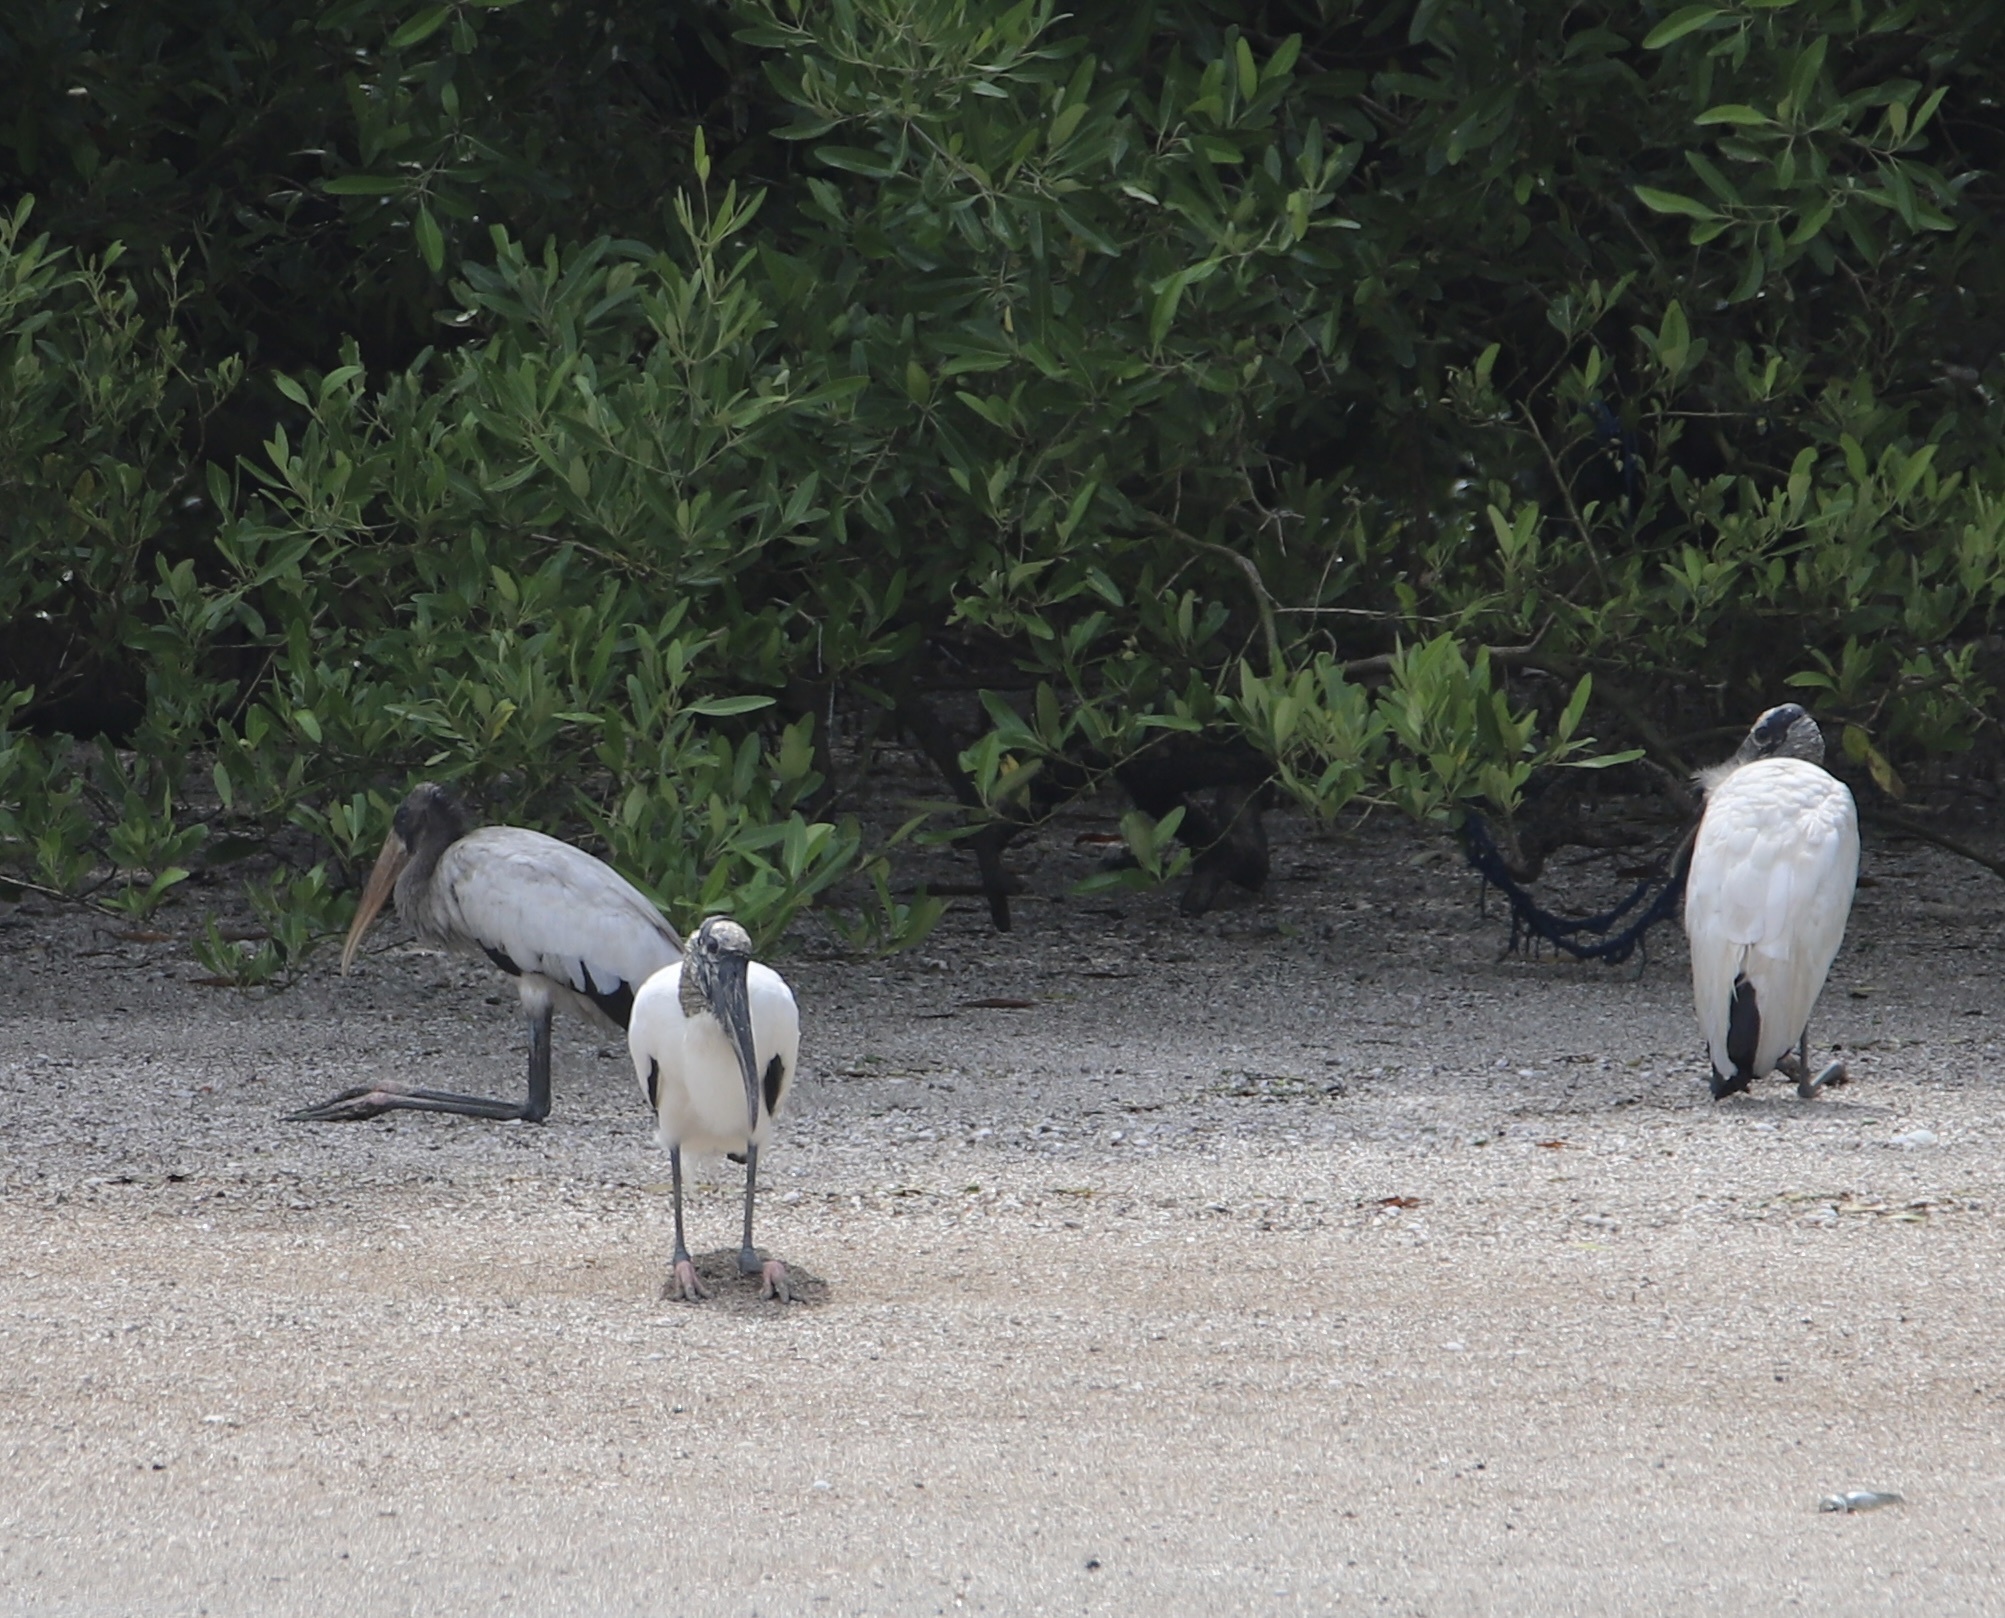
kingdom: Animalia
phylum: Chordata
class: Aves
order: Ciconiiformes
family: Ciconiidae
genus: Mycteria
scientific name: Mycteria americana
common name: Wood stork
